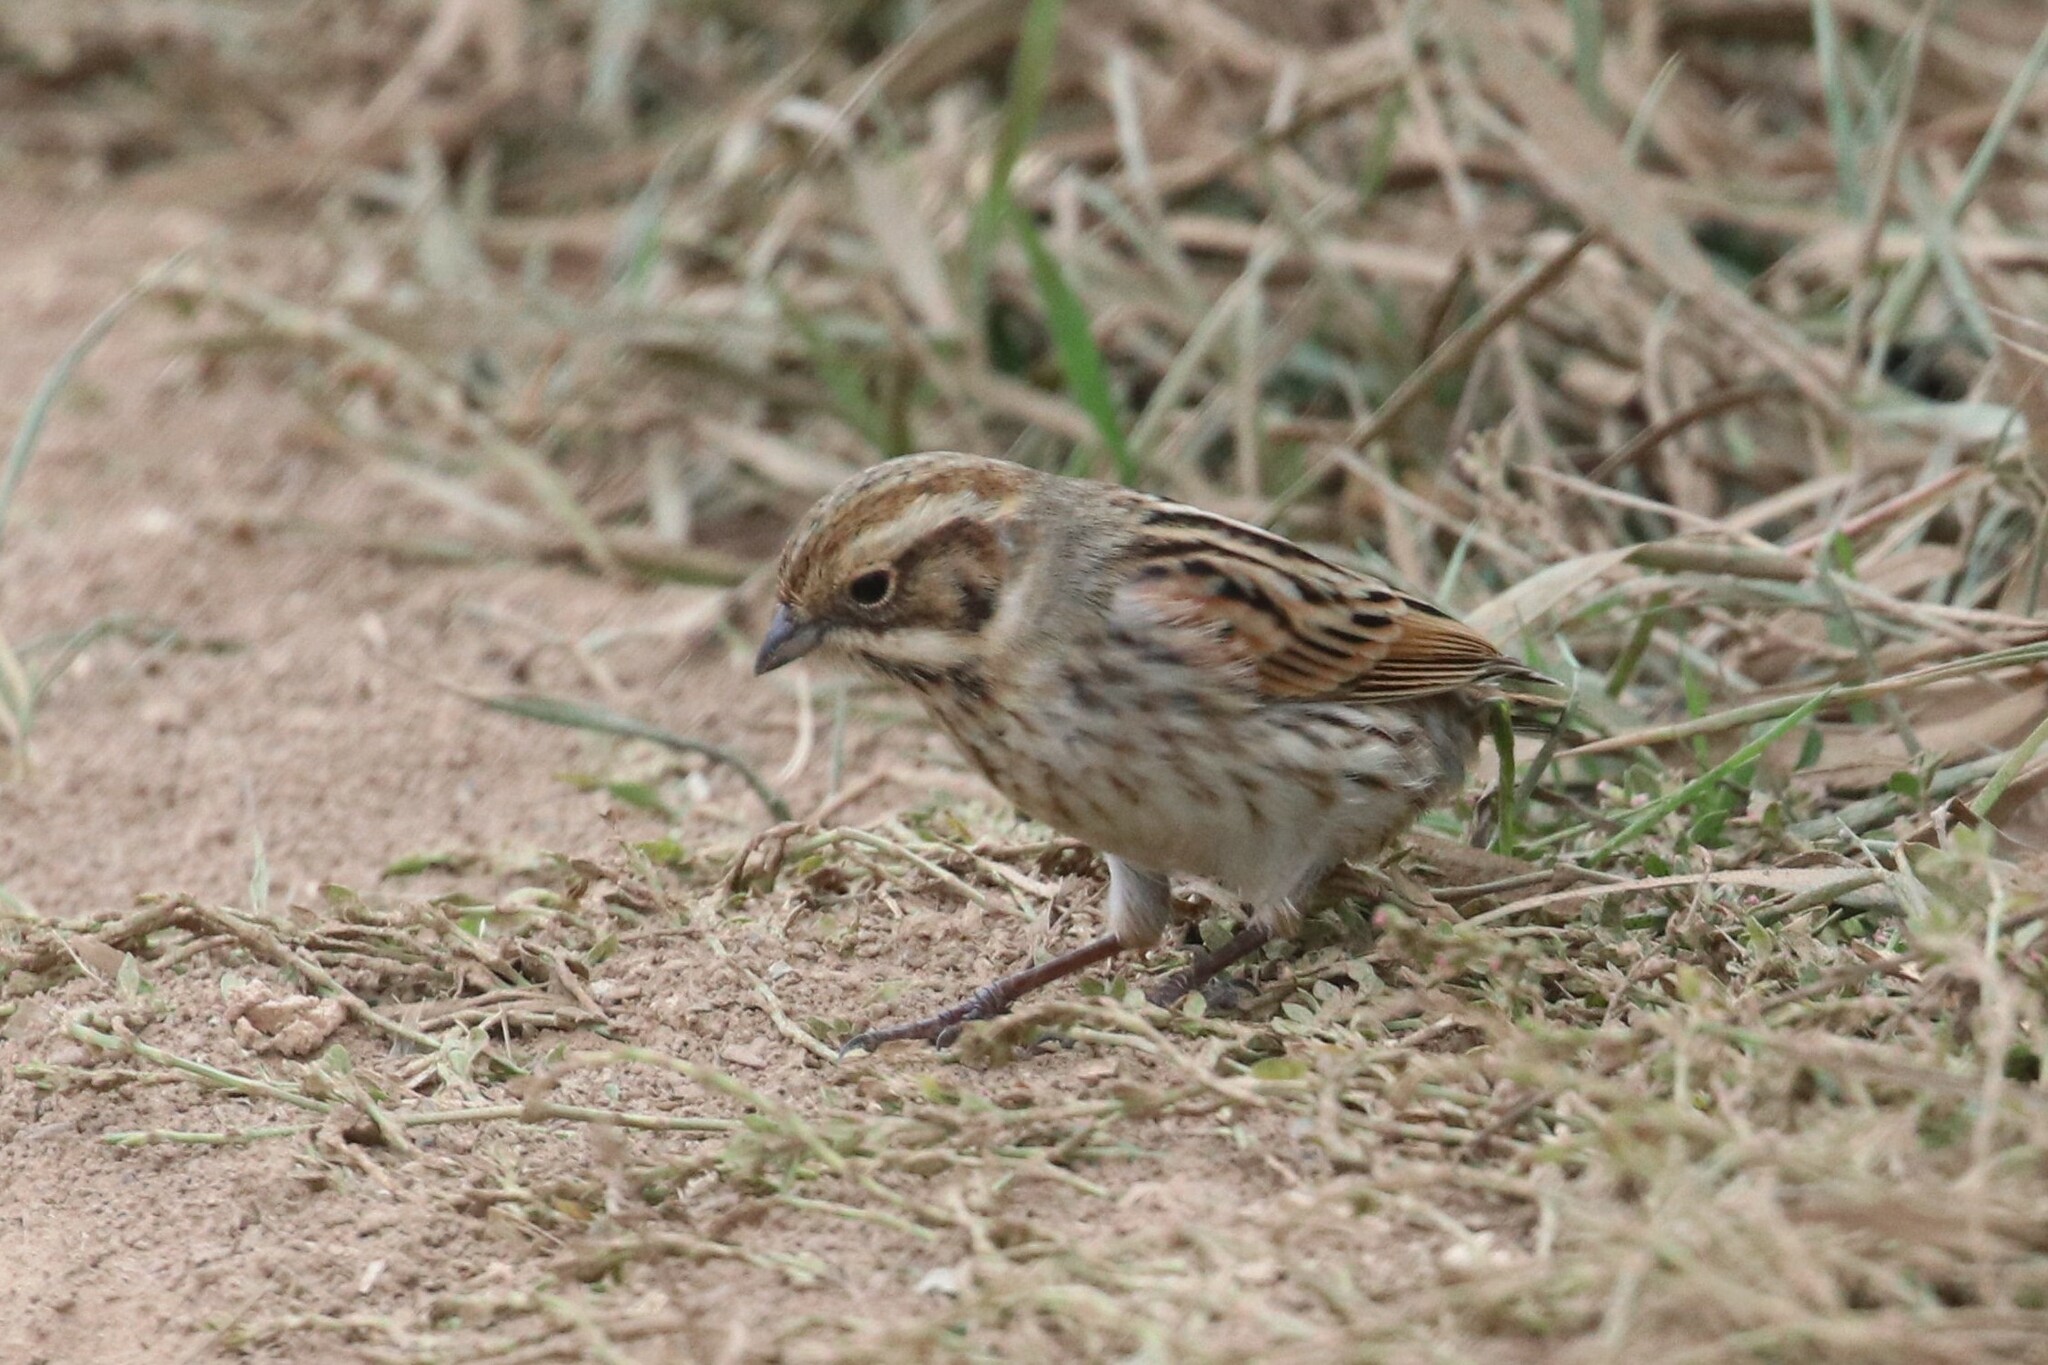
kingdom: Animalia
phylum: Chordata
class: Aves
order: Passeriformes
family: Emberizidae
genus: Emberiza
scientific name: Emberiza schoeniclus
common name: Reed bunting
